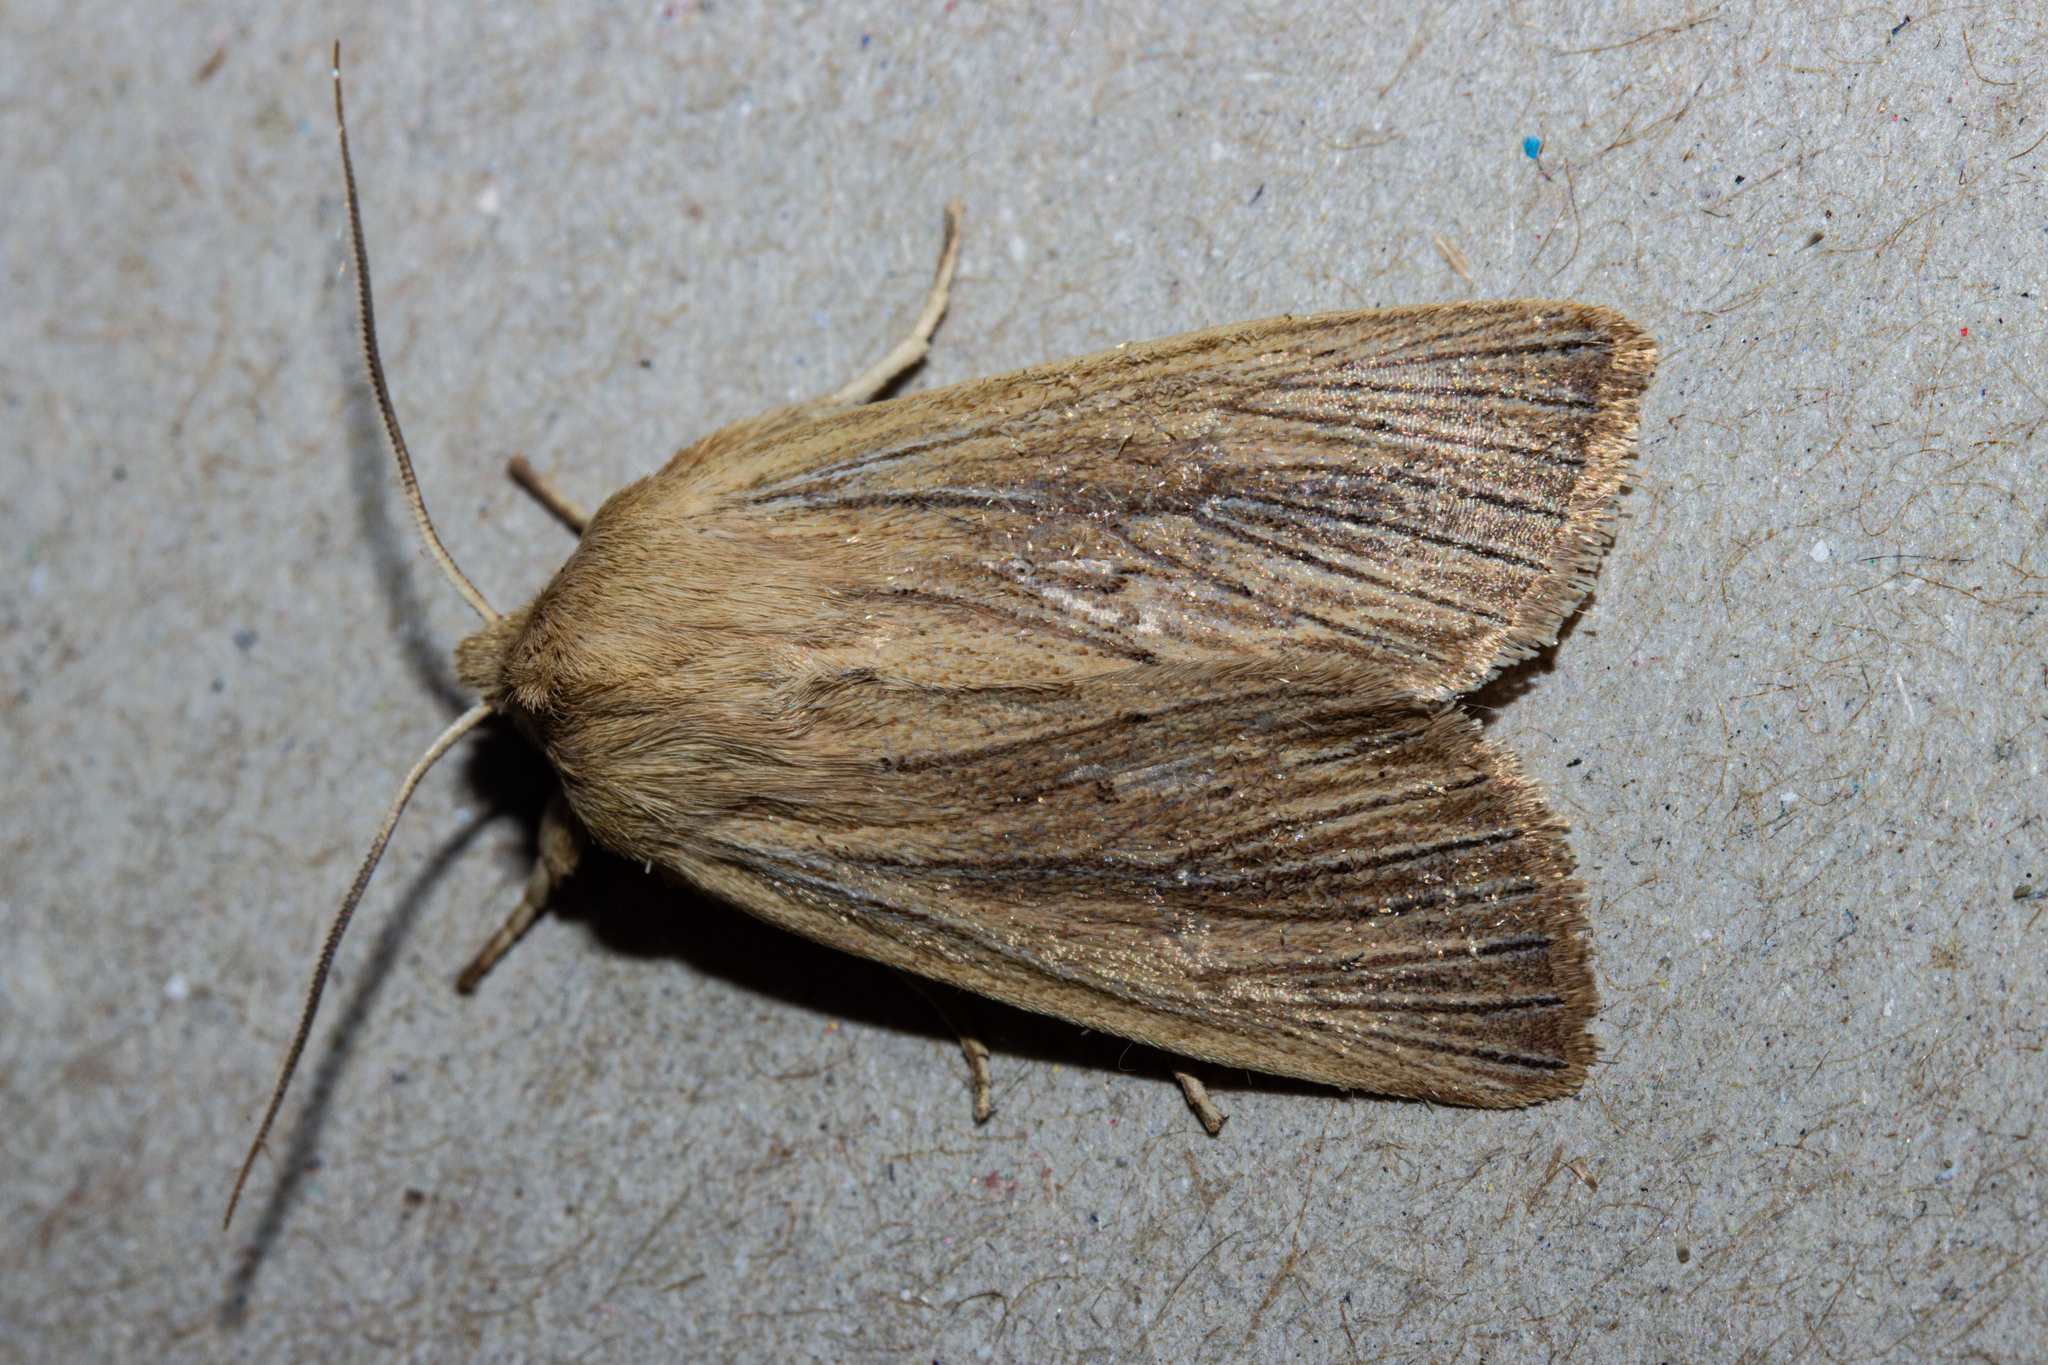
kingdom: Animalia
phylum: Arthropoda
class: Insecta
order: Lepidoptera
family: Noctuidae
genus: Ichneutica
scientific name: Ichneutica arotis
